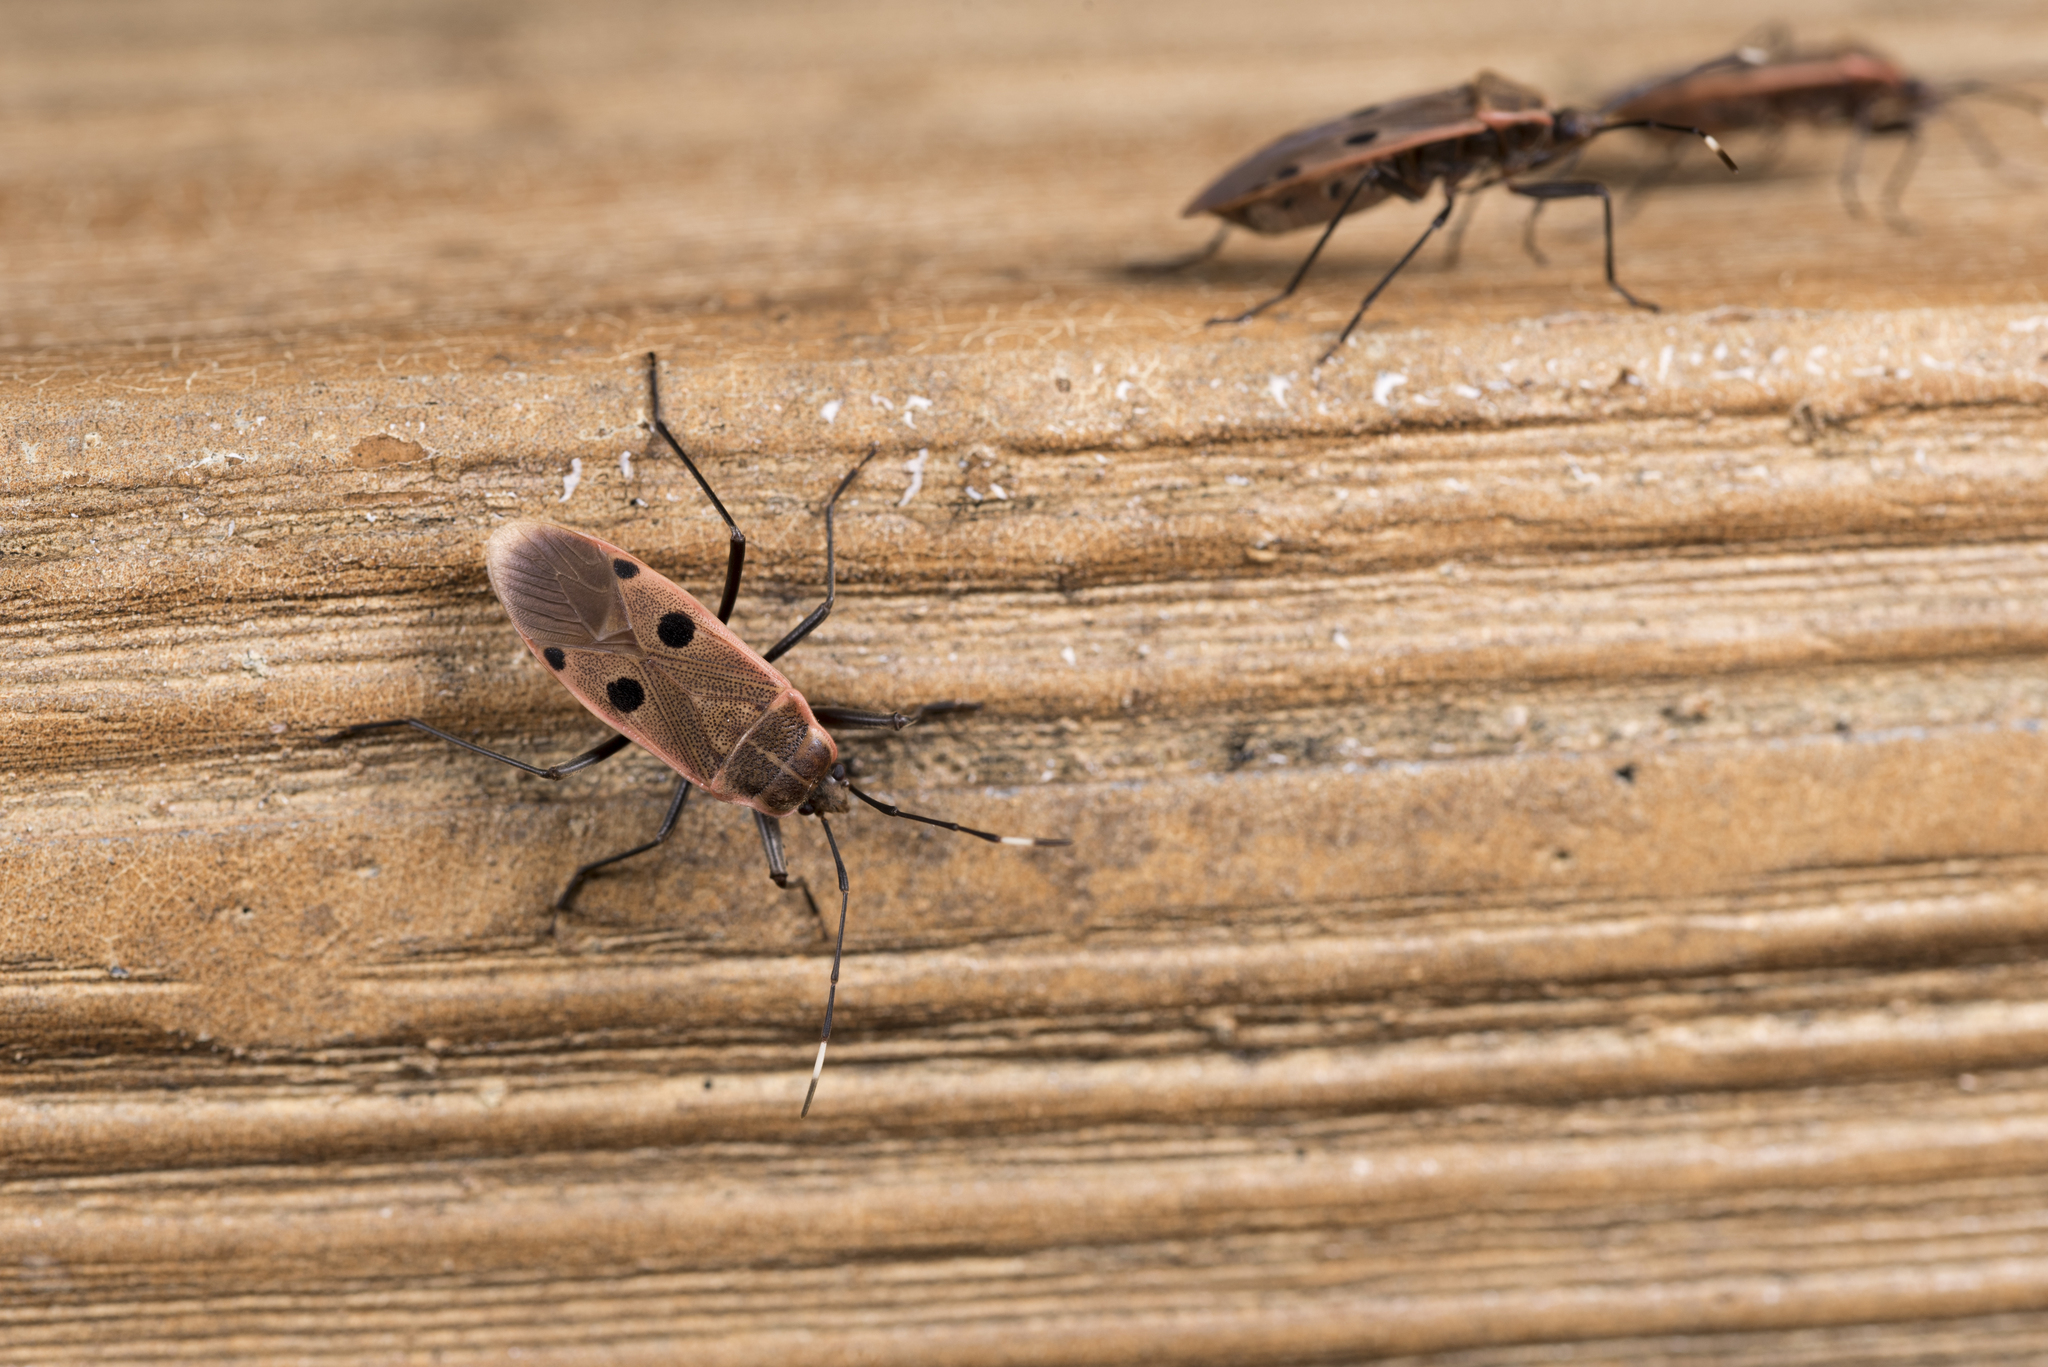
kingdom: Animalia
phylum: Arthropoda
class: Insecta
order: Hemiptera
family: Largidae
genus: Physopelta
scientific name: Physopelta quadriguttata
